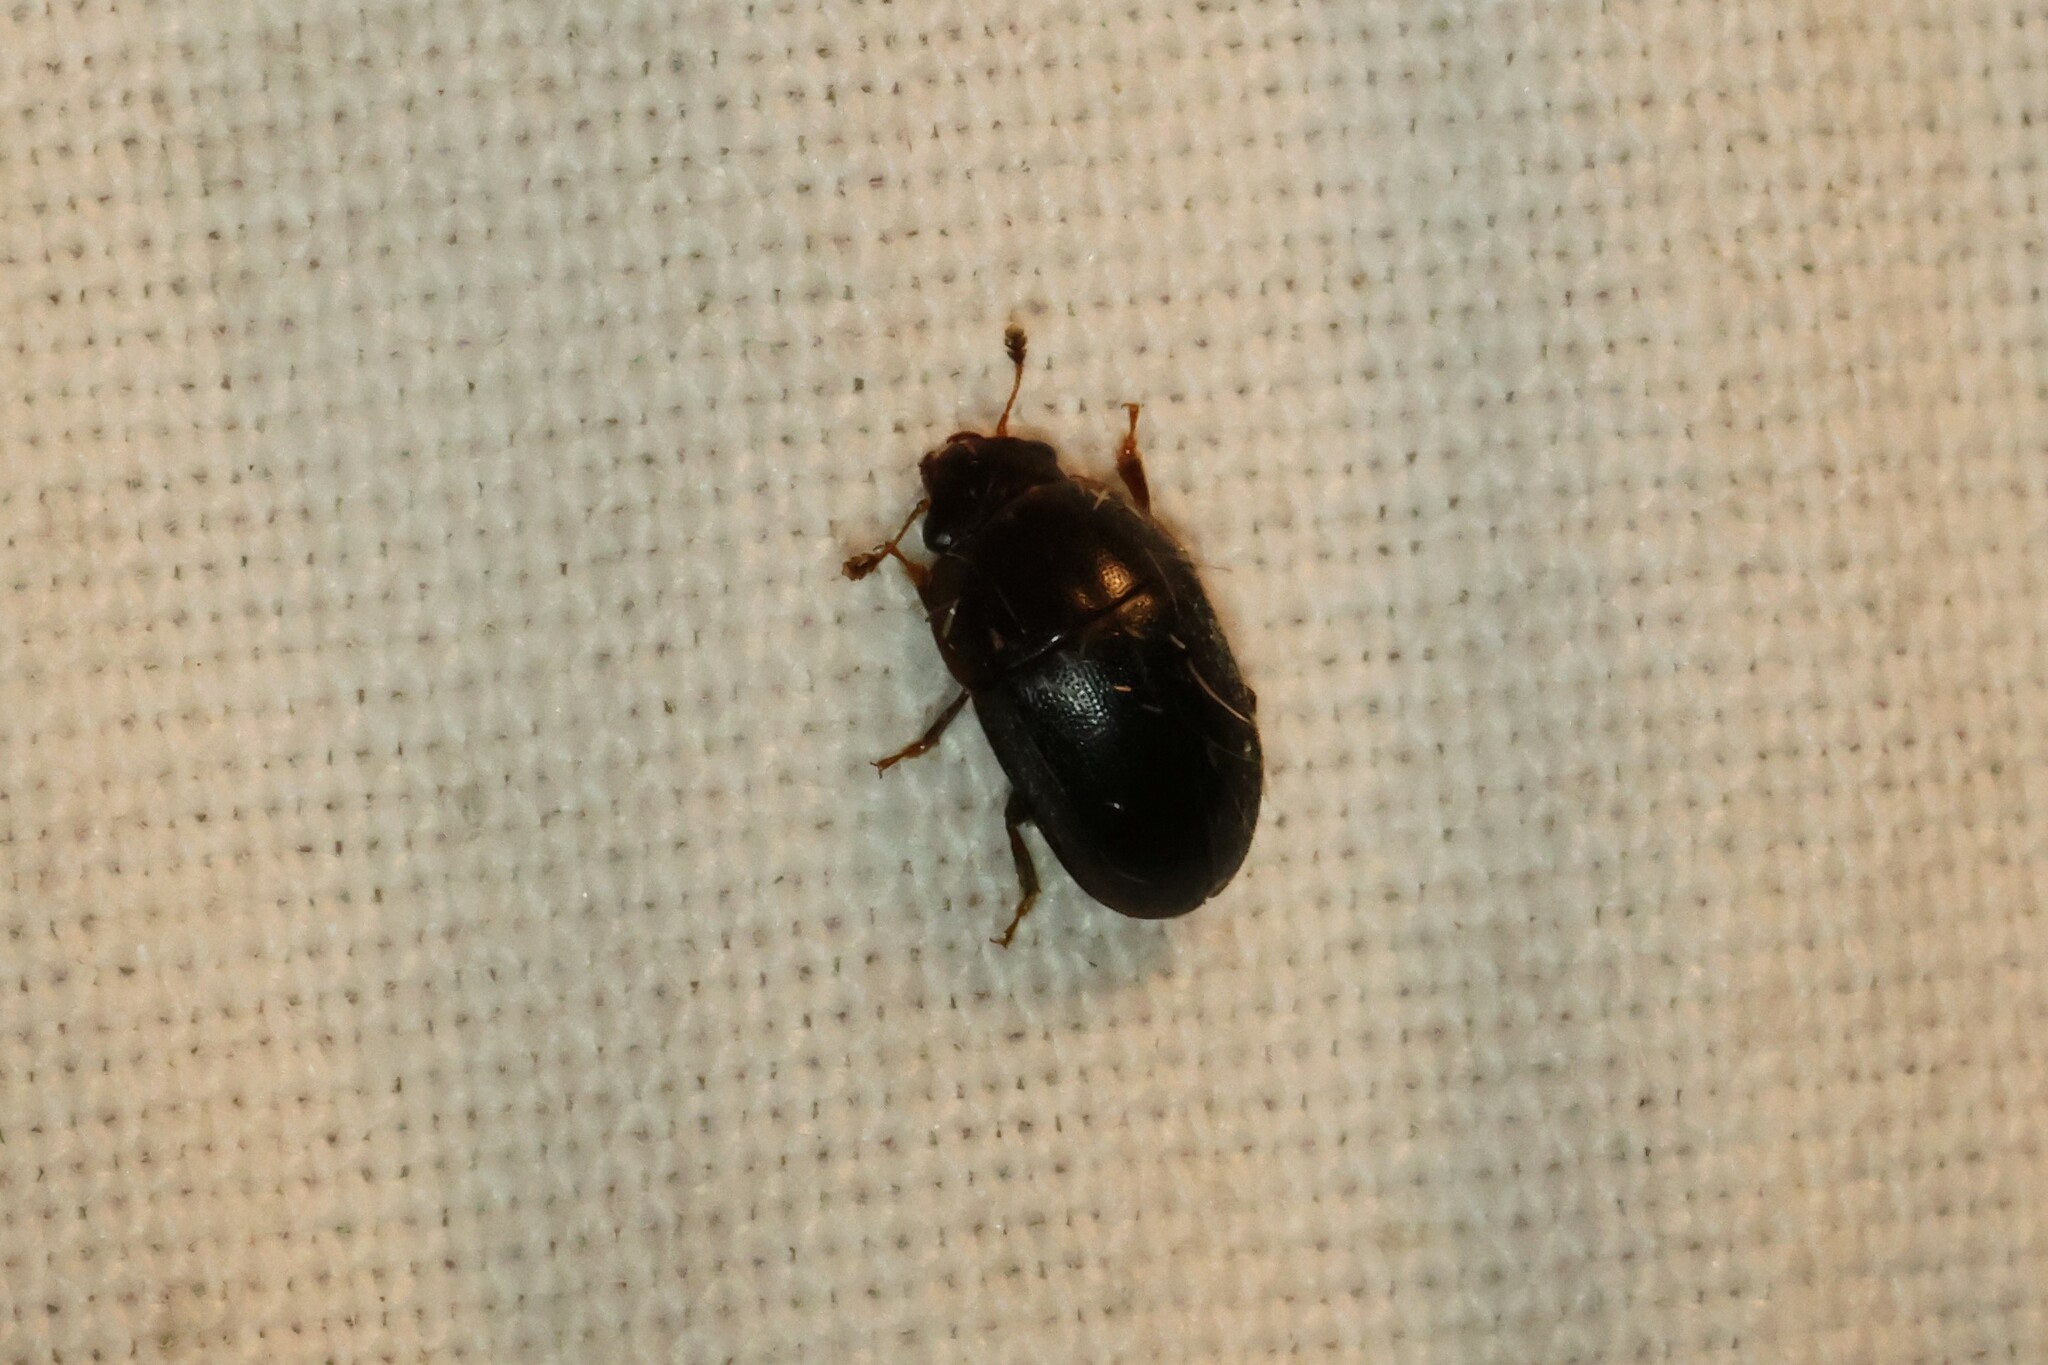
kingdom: Animalia
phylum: Arthropoda
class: Insecta
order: Coleoptera
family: Nitidulidae
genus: Cryptarcha
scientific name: Cryptarcha ampla
